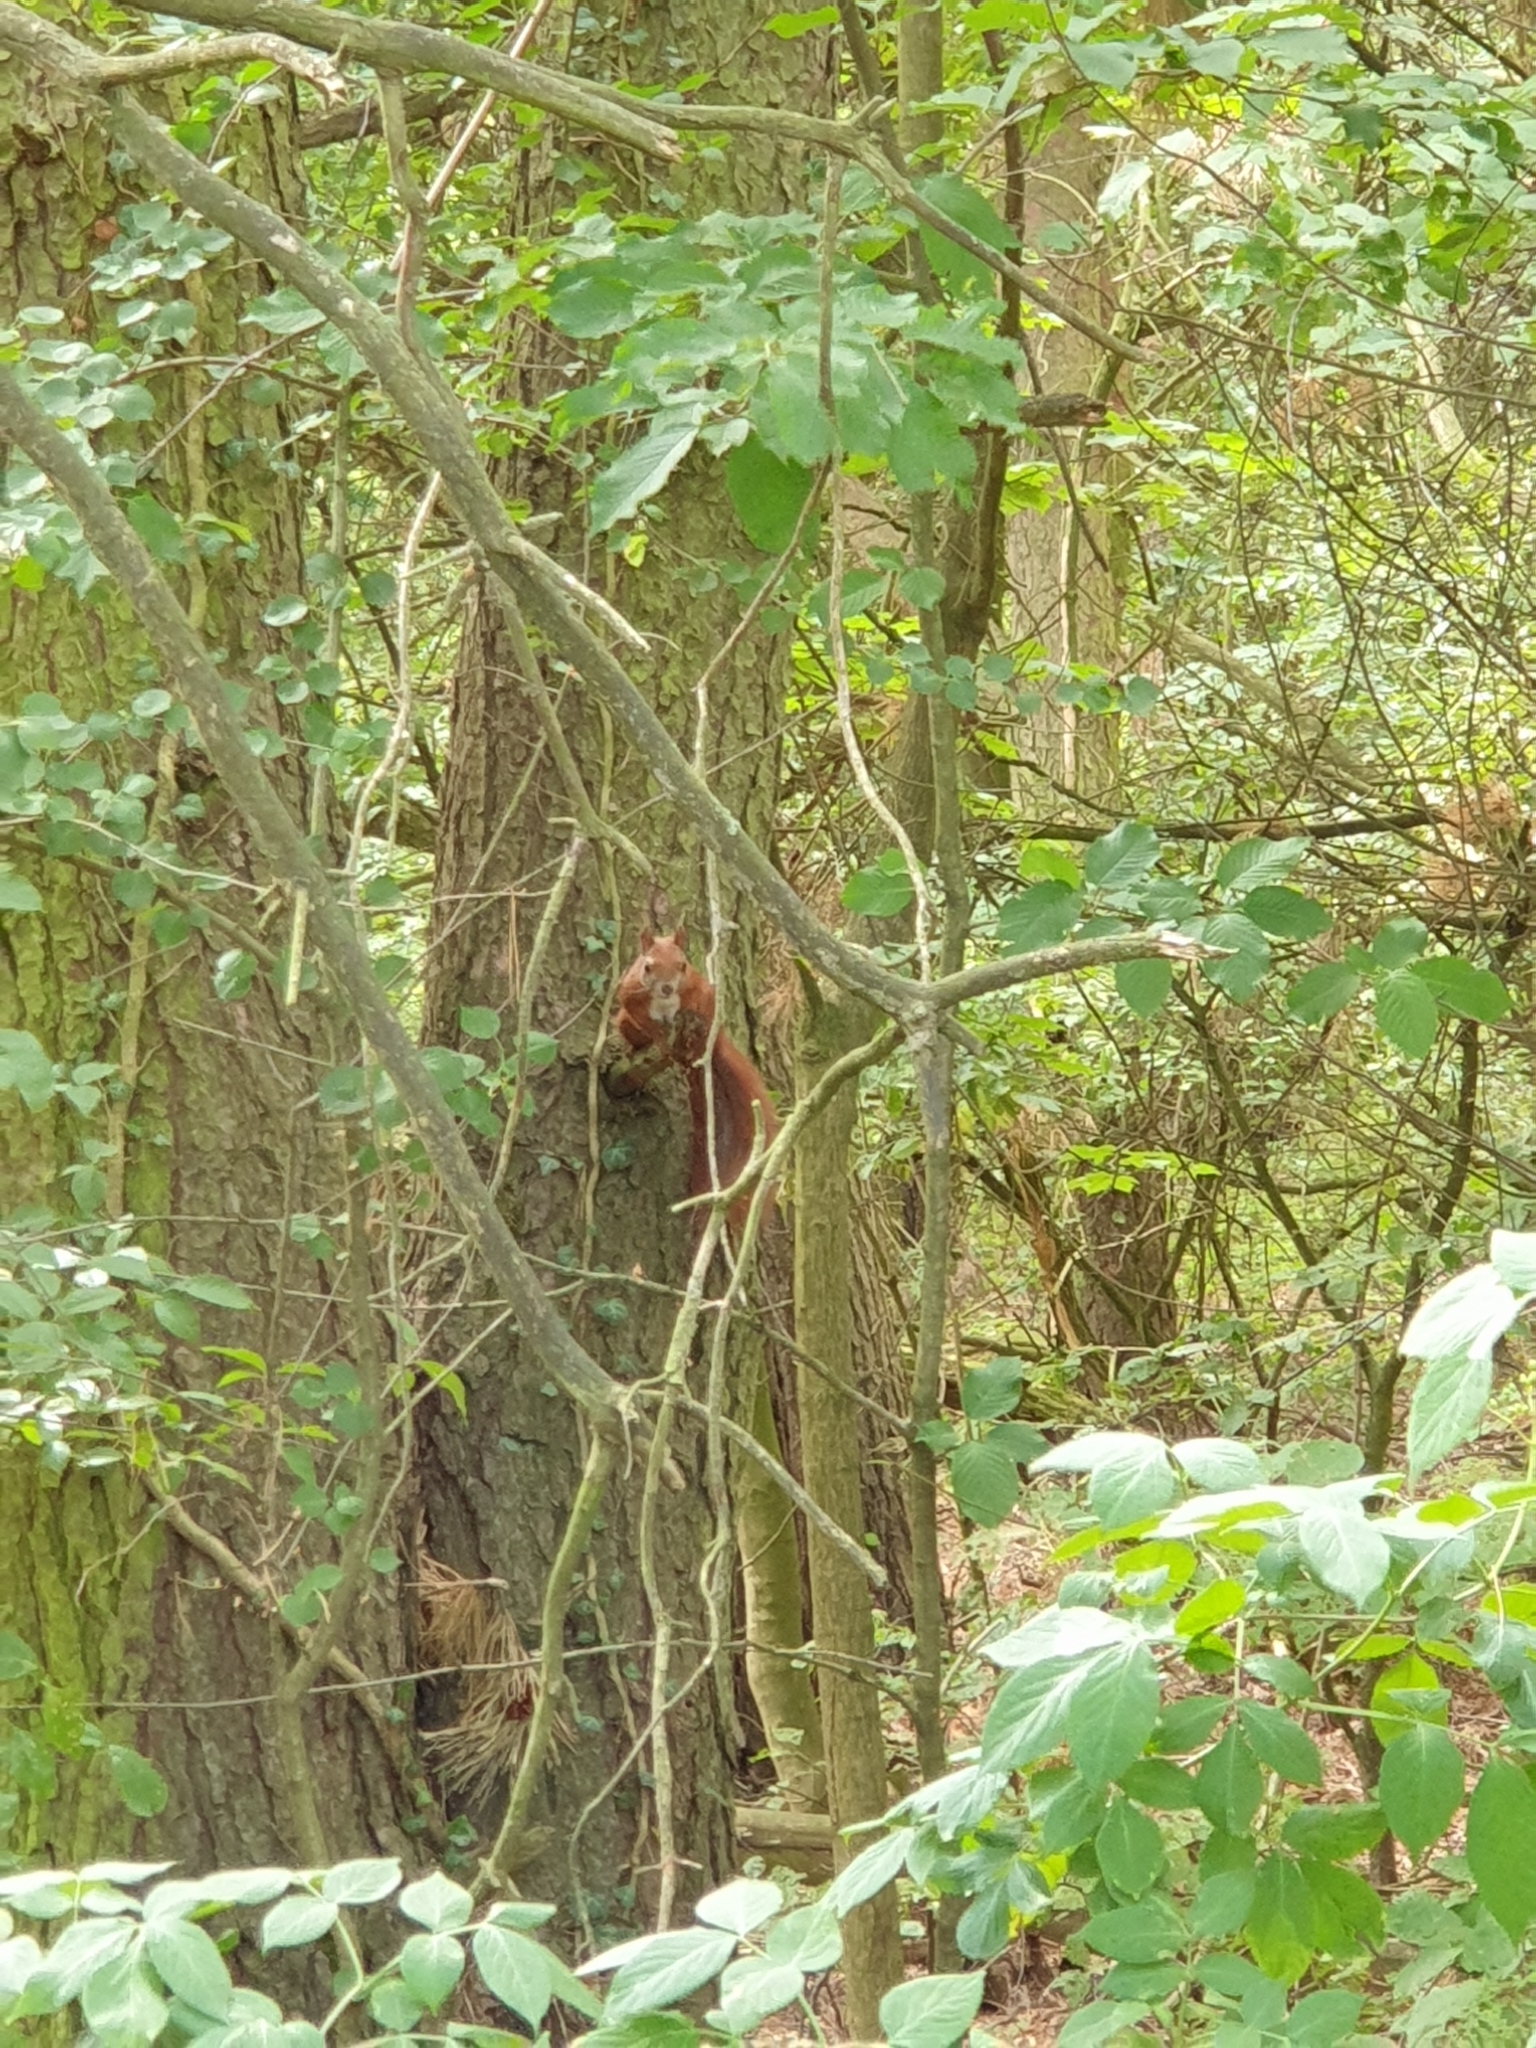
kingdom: Animalia
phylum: Chordata
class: Mammalia
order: Rodentia
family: Sciuridae
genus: Sciurus
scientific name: Sciurus vulgaris
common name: Eurasian red squirrel
